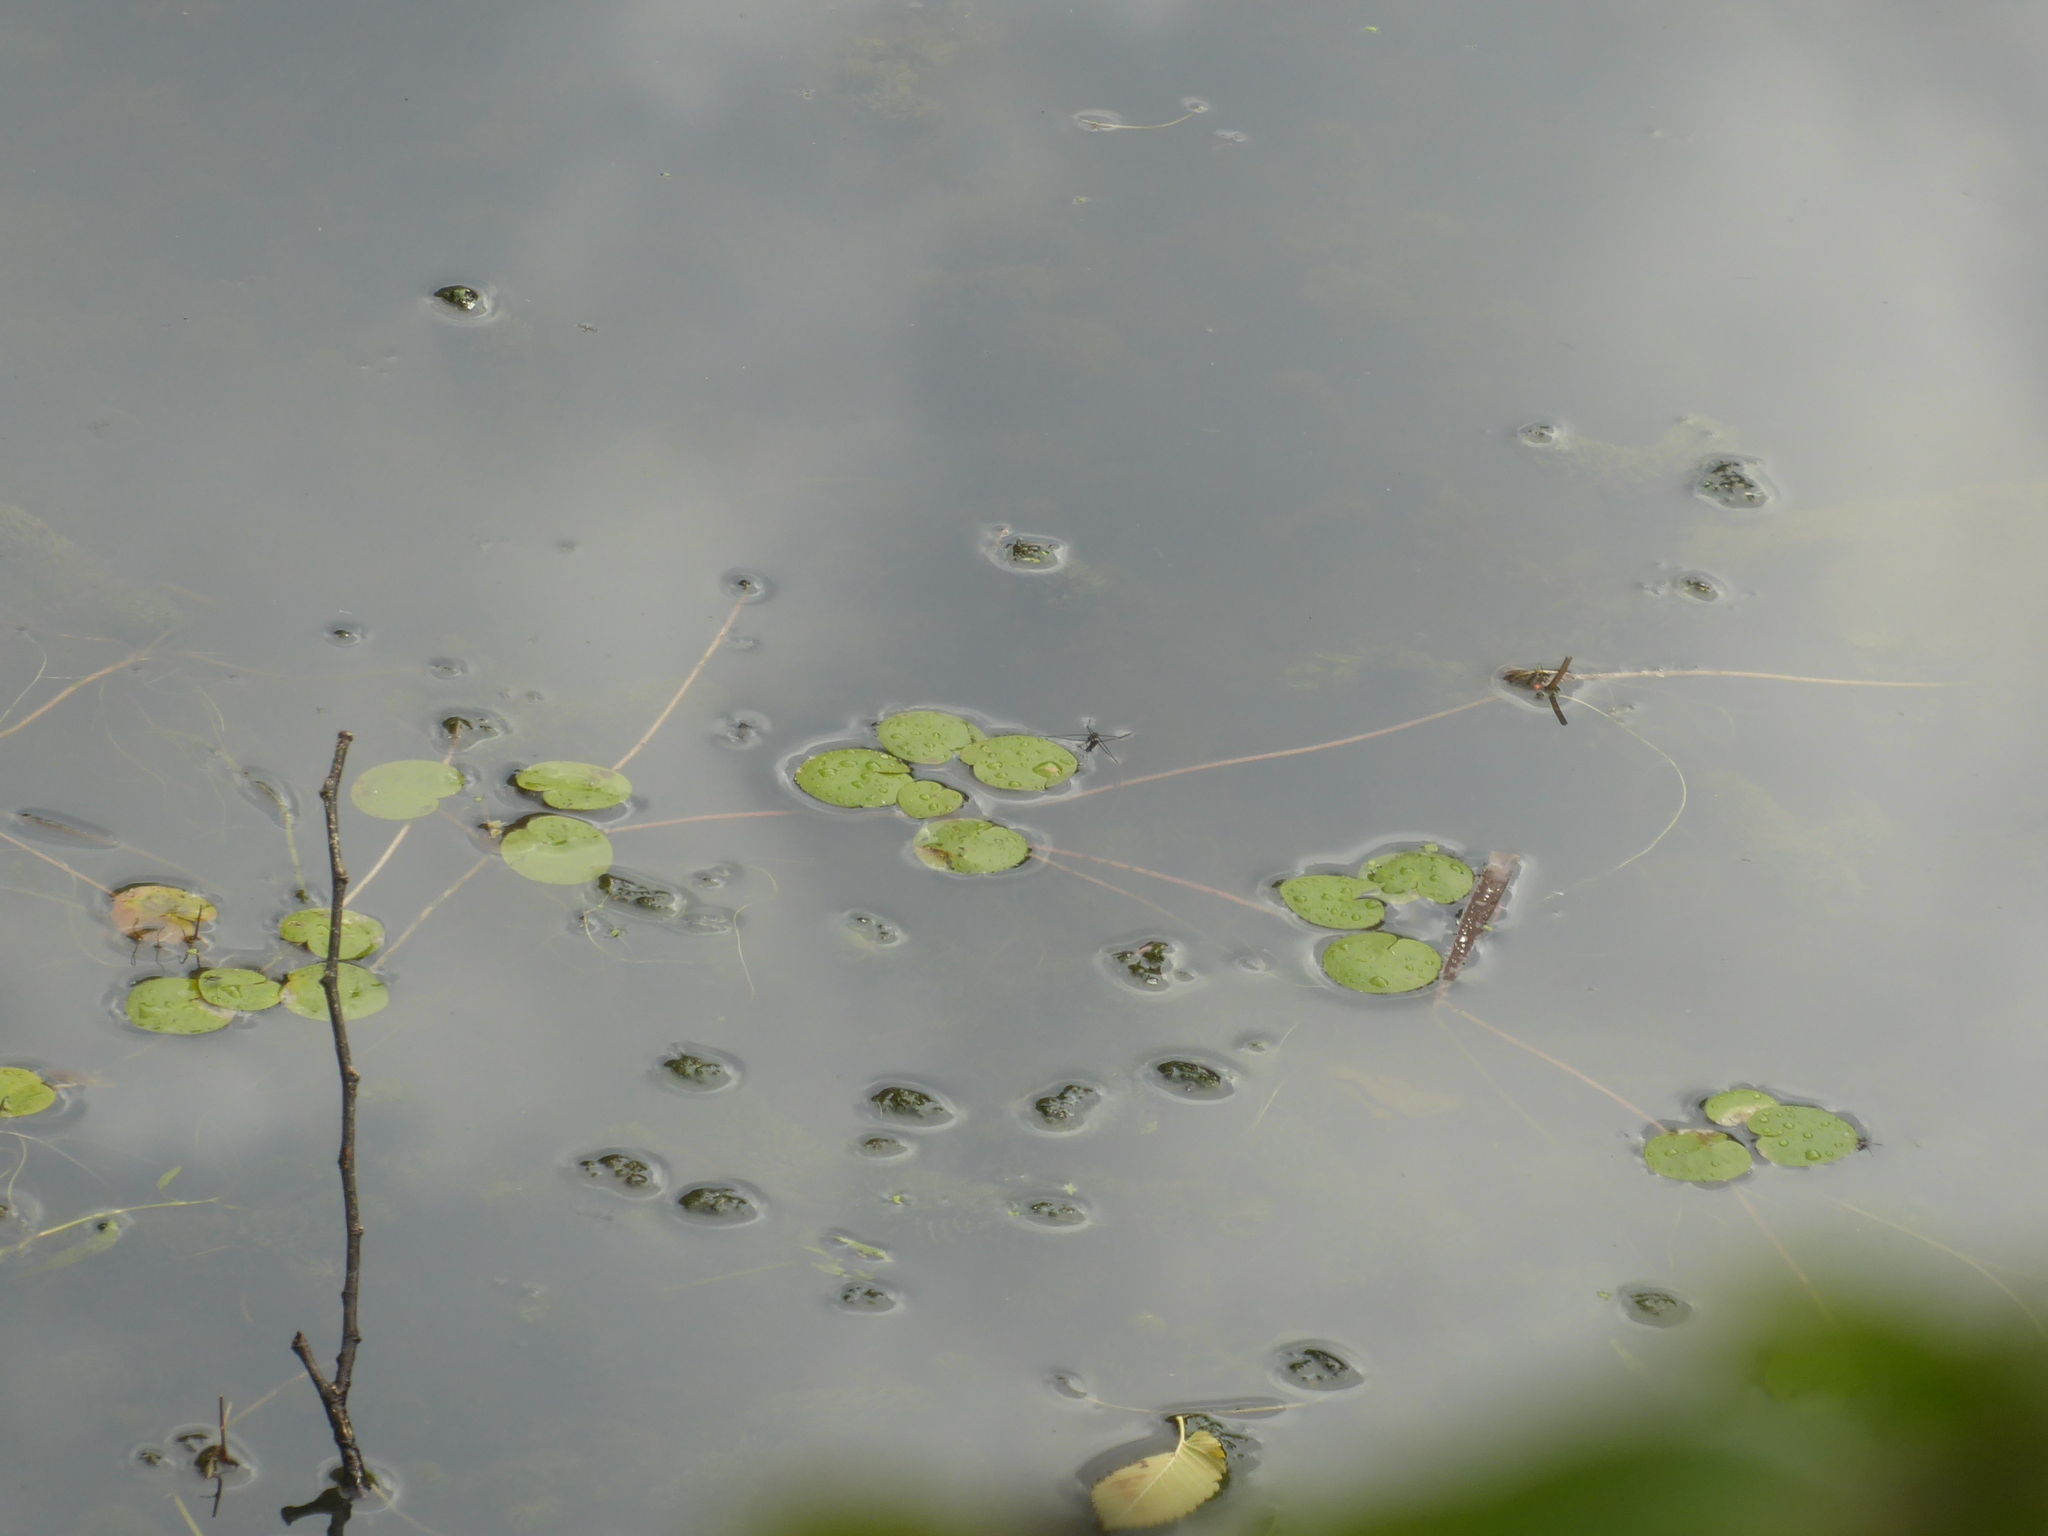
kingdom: Plantae
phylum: Tracheophyta
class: Liliopsida
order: Alismatales
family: Hydrocharitaceae
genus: Hydrocharis
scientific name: Hydrocharis morsus-ranae
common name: Frogbit
